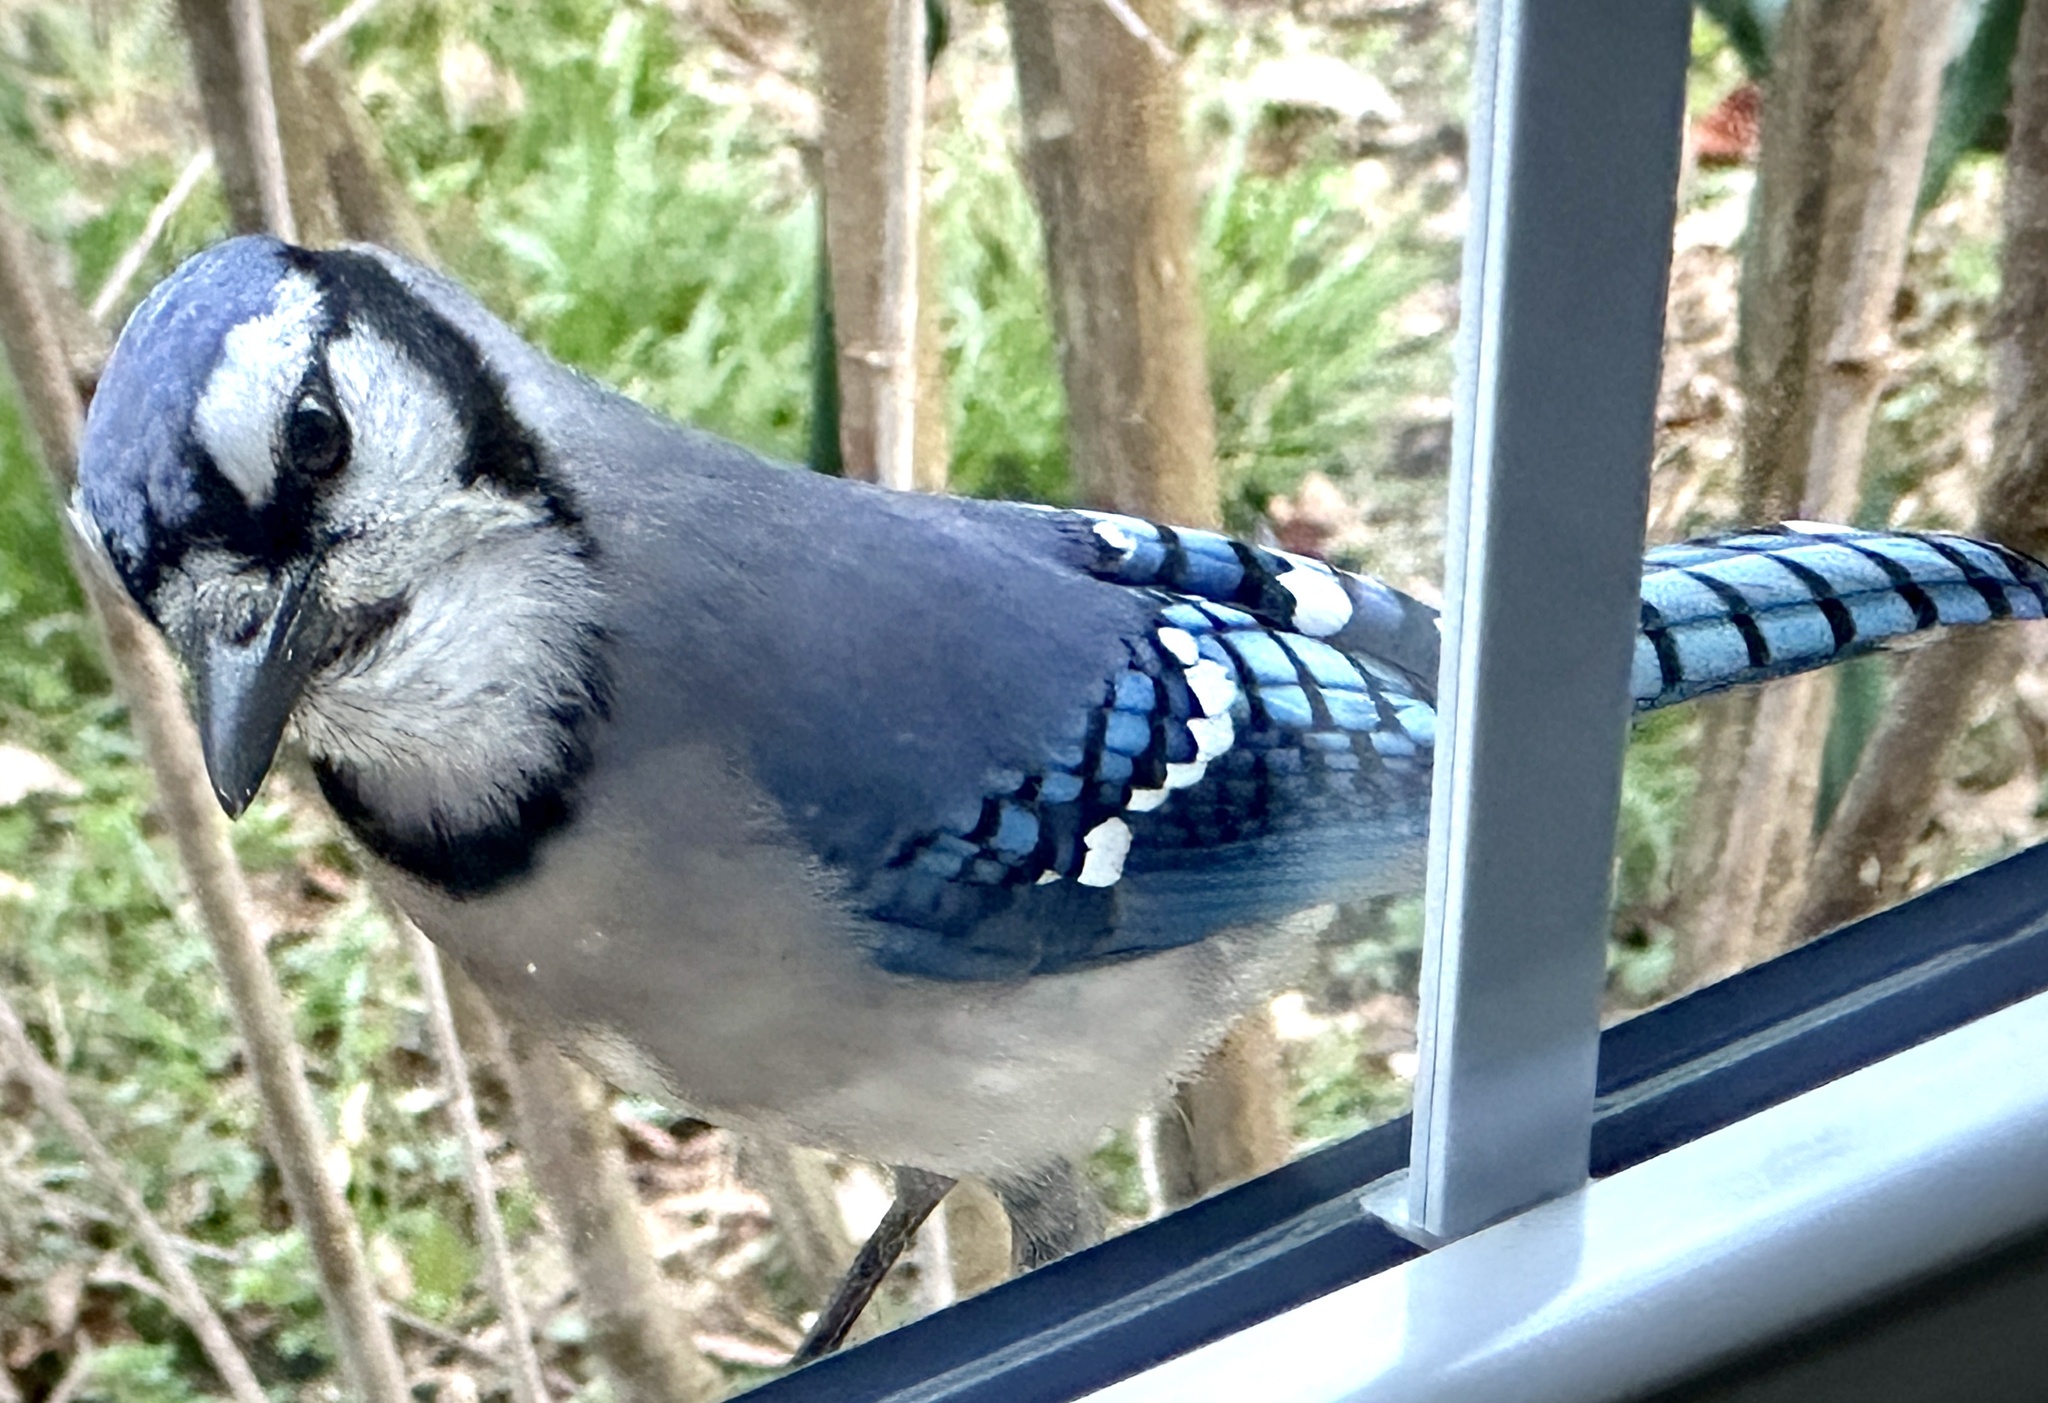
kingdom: Animalia
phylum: Chordata
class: Aves
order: Passeriformes
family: Corvidae
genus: Cyanocitta
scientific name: Cyanocitta cristata
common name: Blue jay
